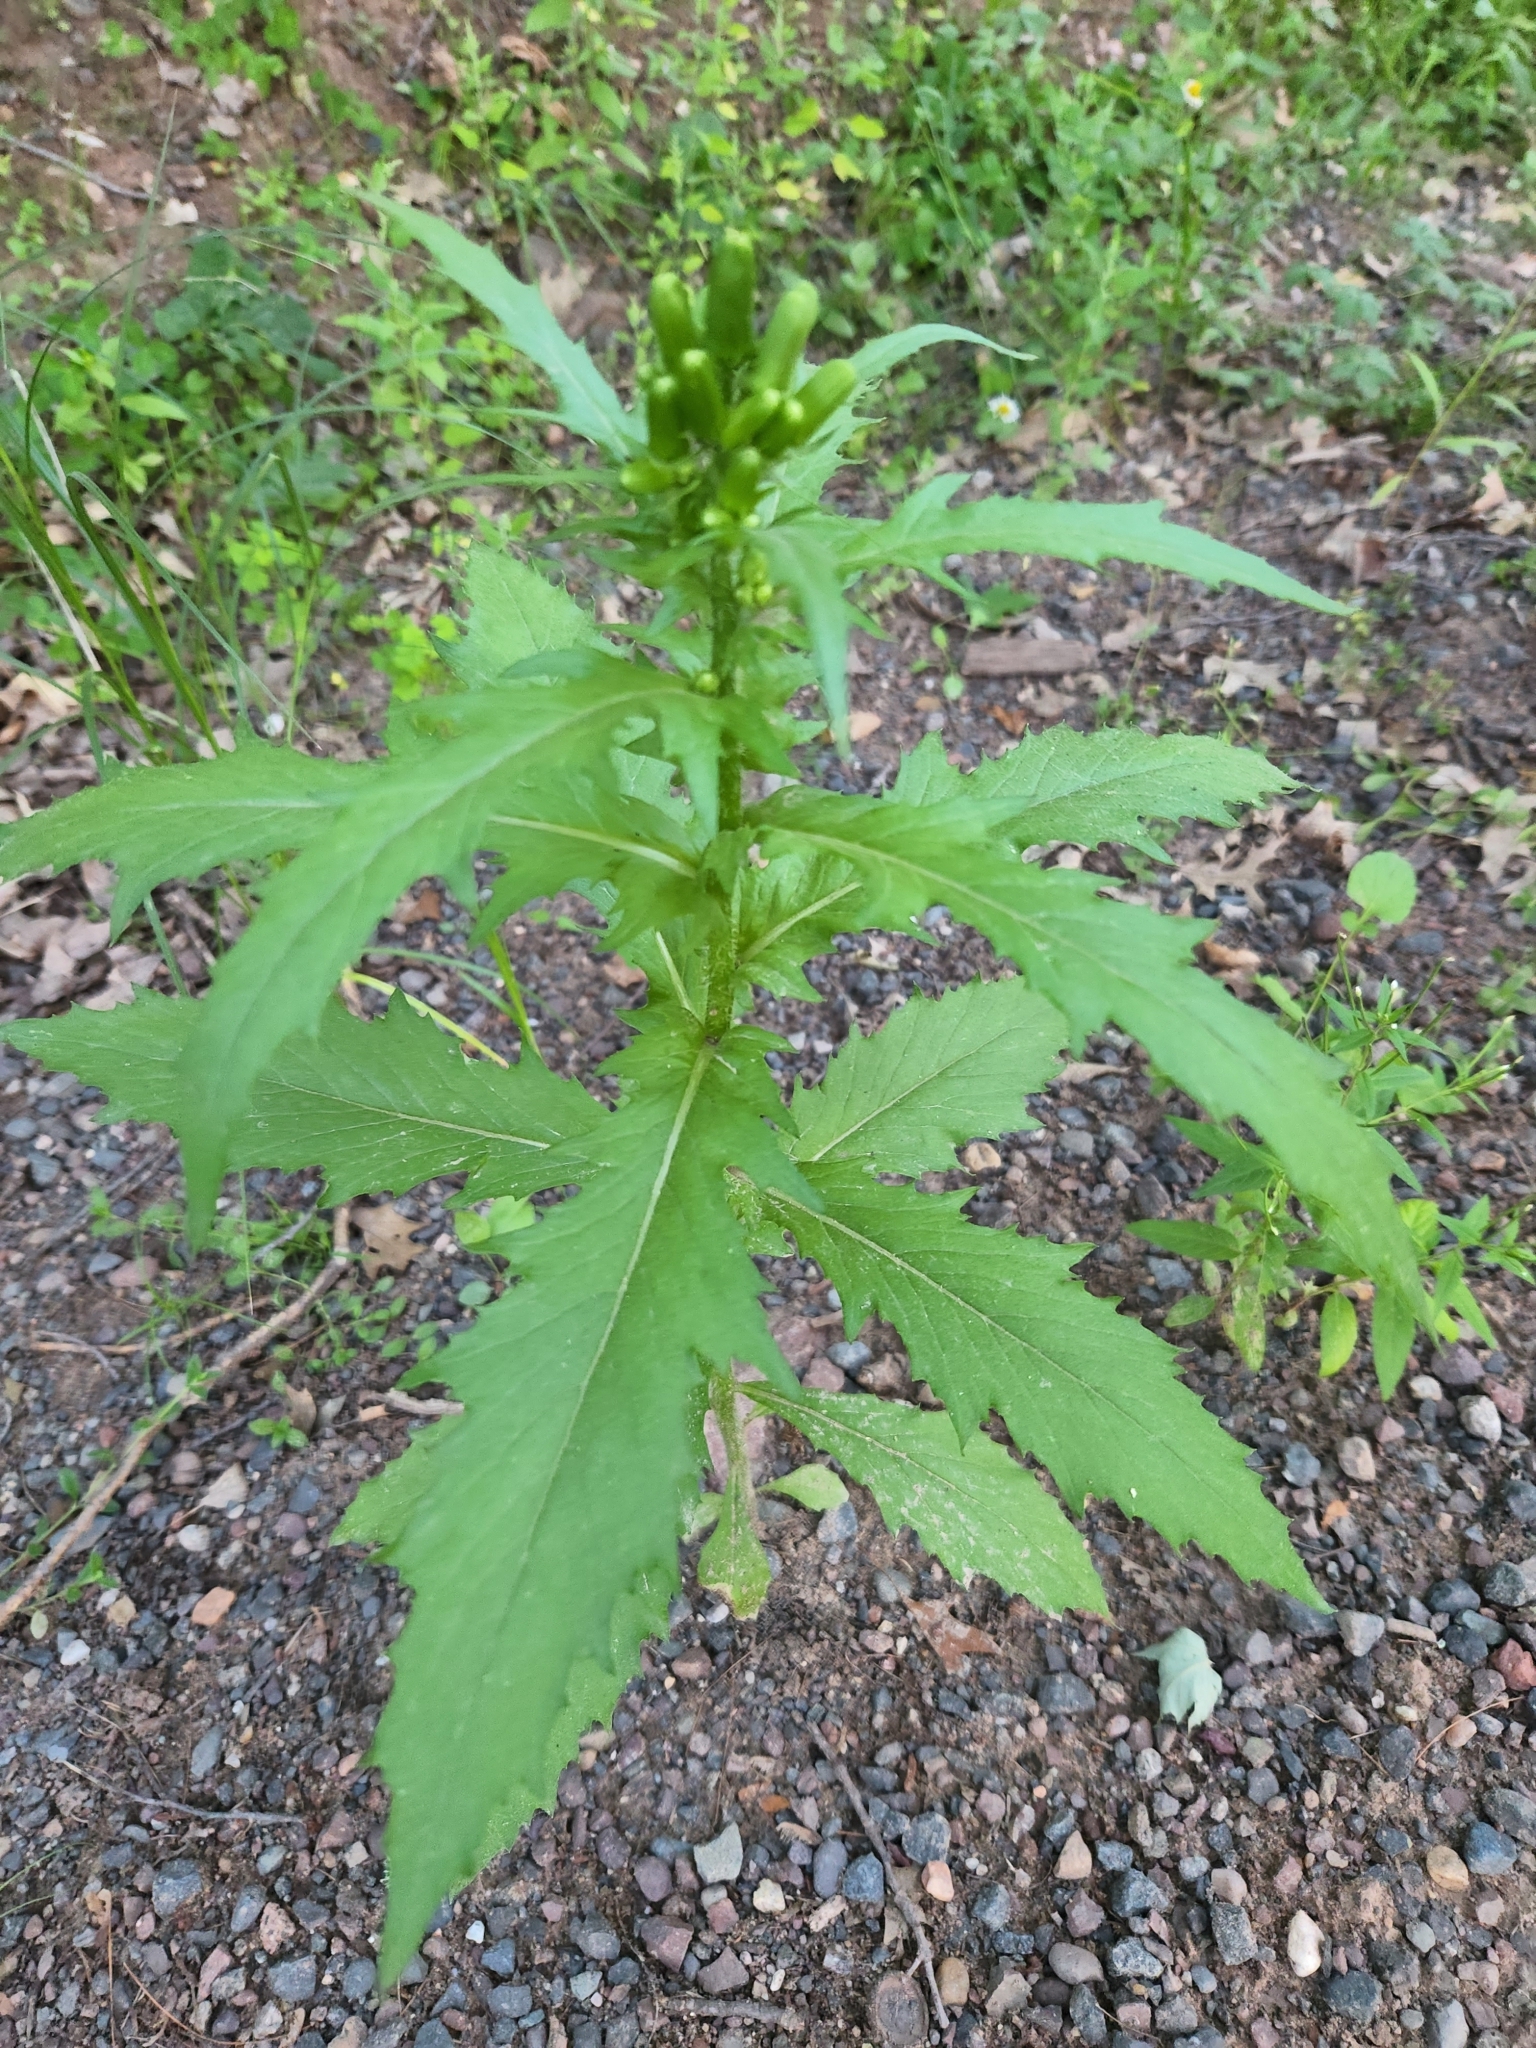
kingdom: Plantae
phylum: Tracheophyta
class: Magnoliopsida
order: Asterales
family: Asteraceae
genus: Erechtites
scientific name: Erechtites hieraciifolius
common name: American burnweed
